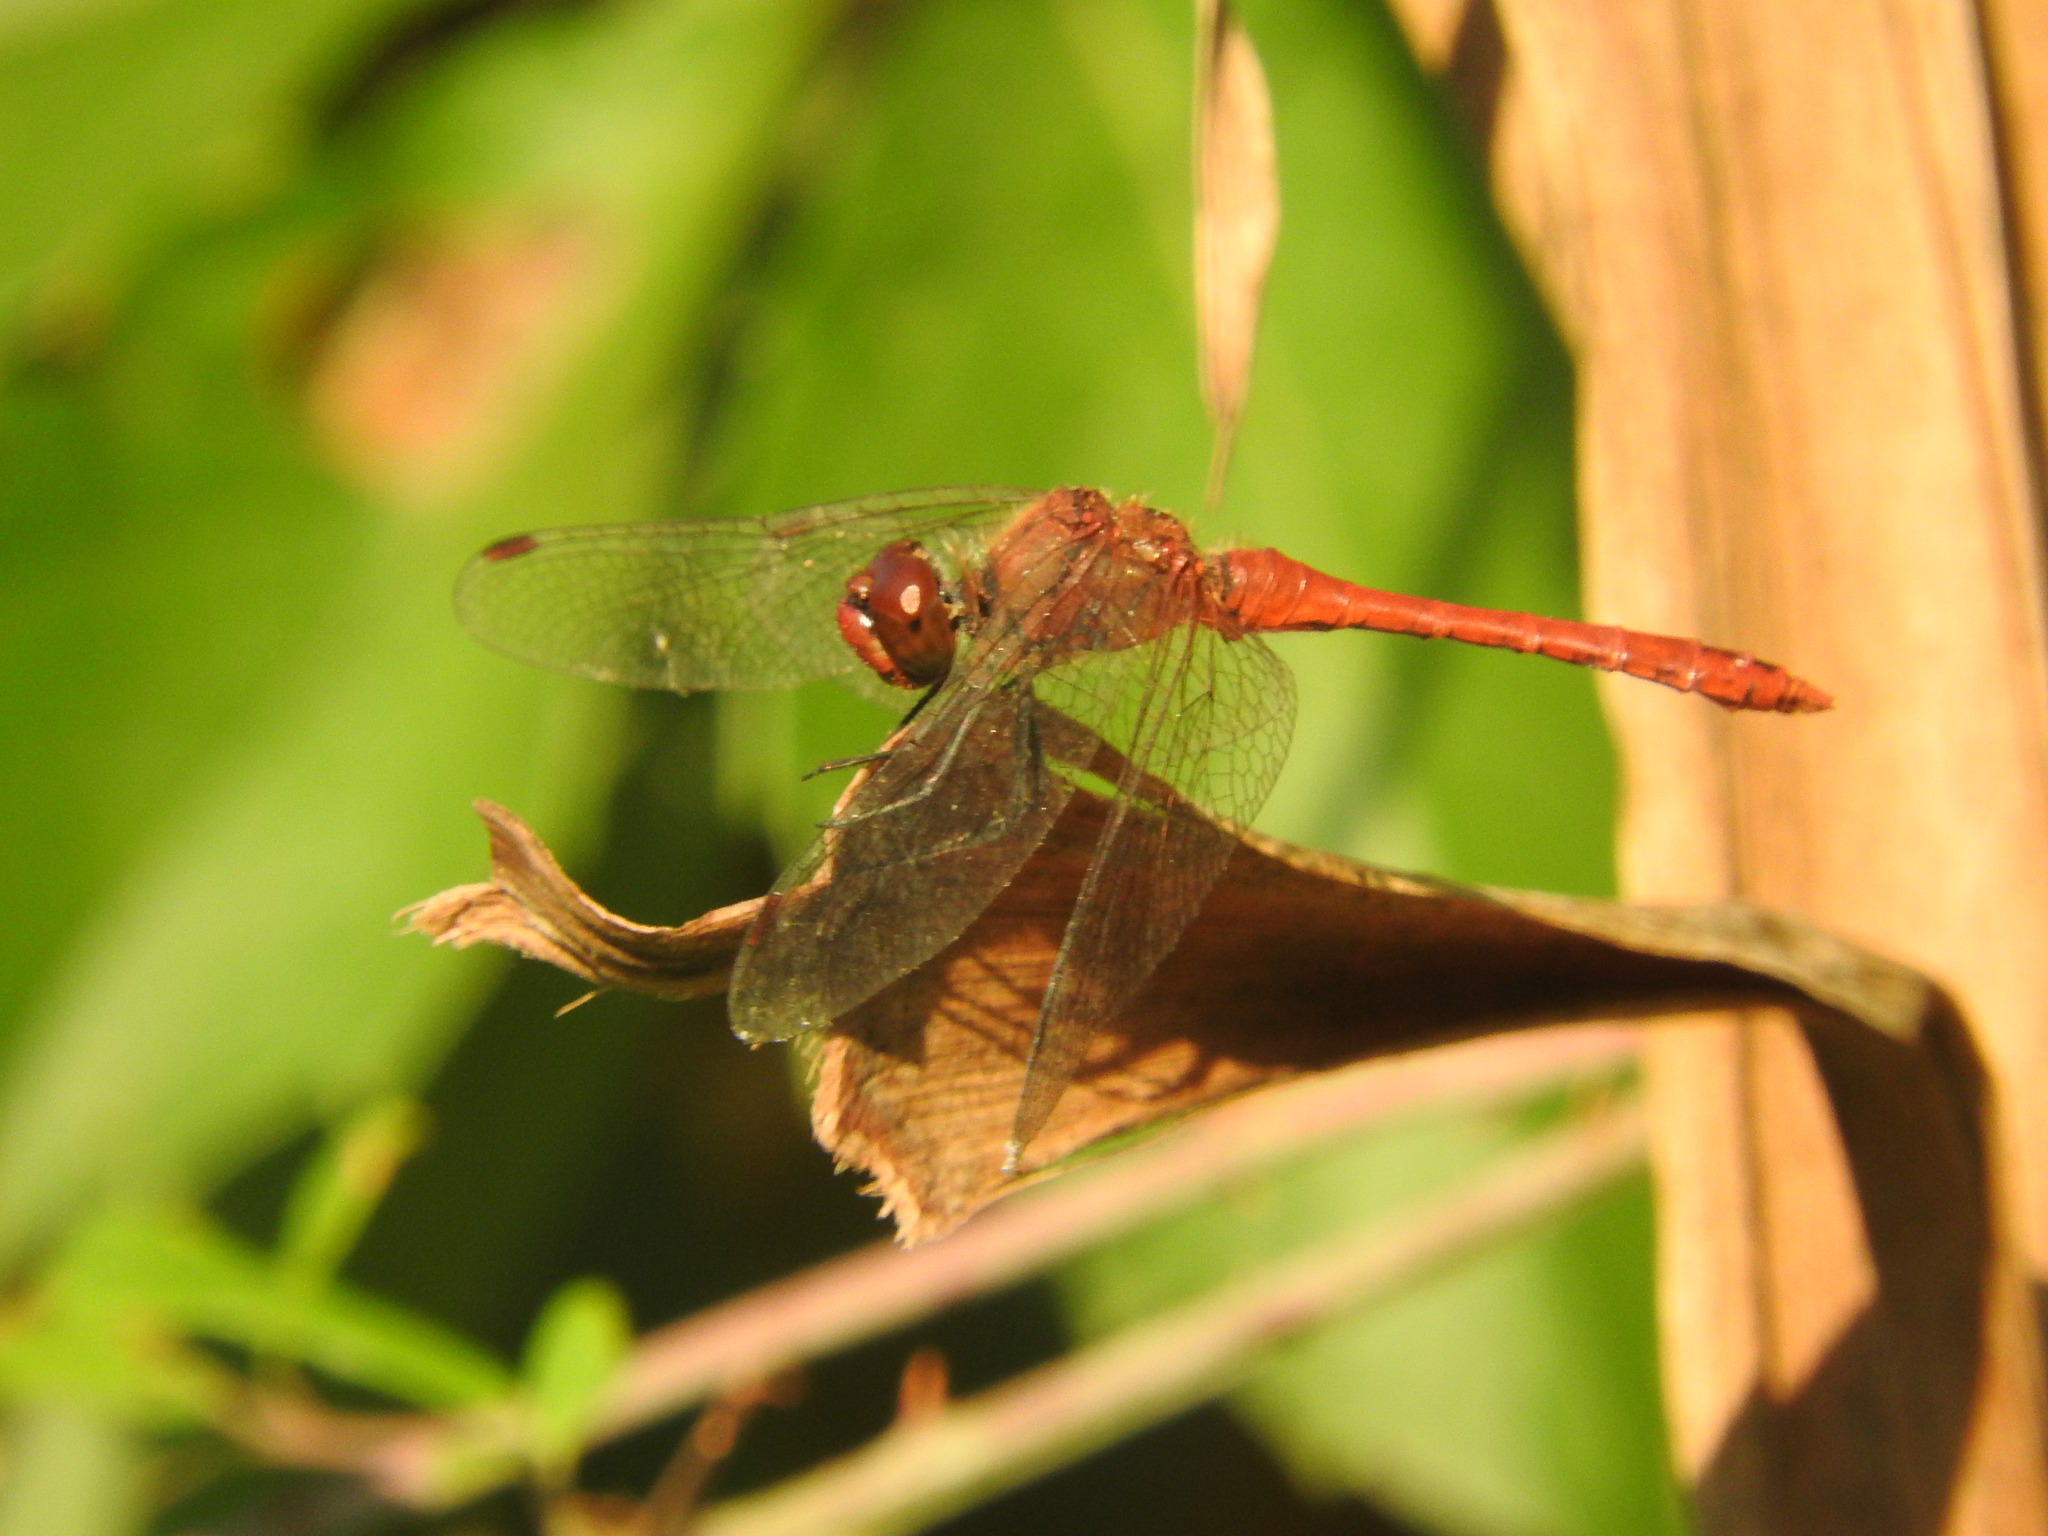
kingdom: Animalia
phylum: Arthropoda
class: Insecta
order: Odonata
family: Libellulidae
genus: Sympetrum
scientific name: Sympetrum sanguineum
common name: Ruddy darter
